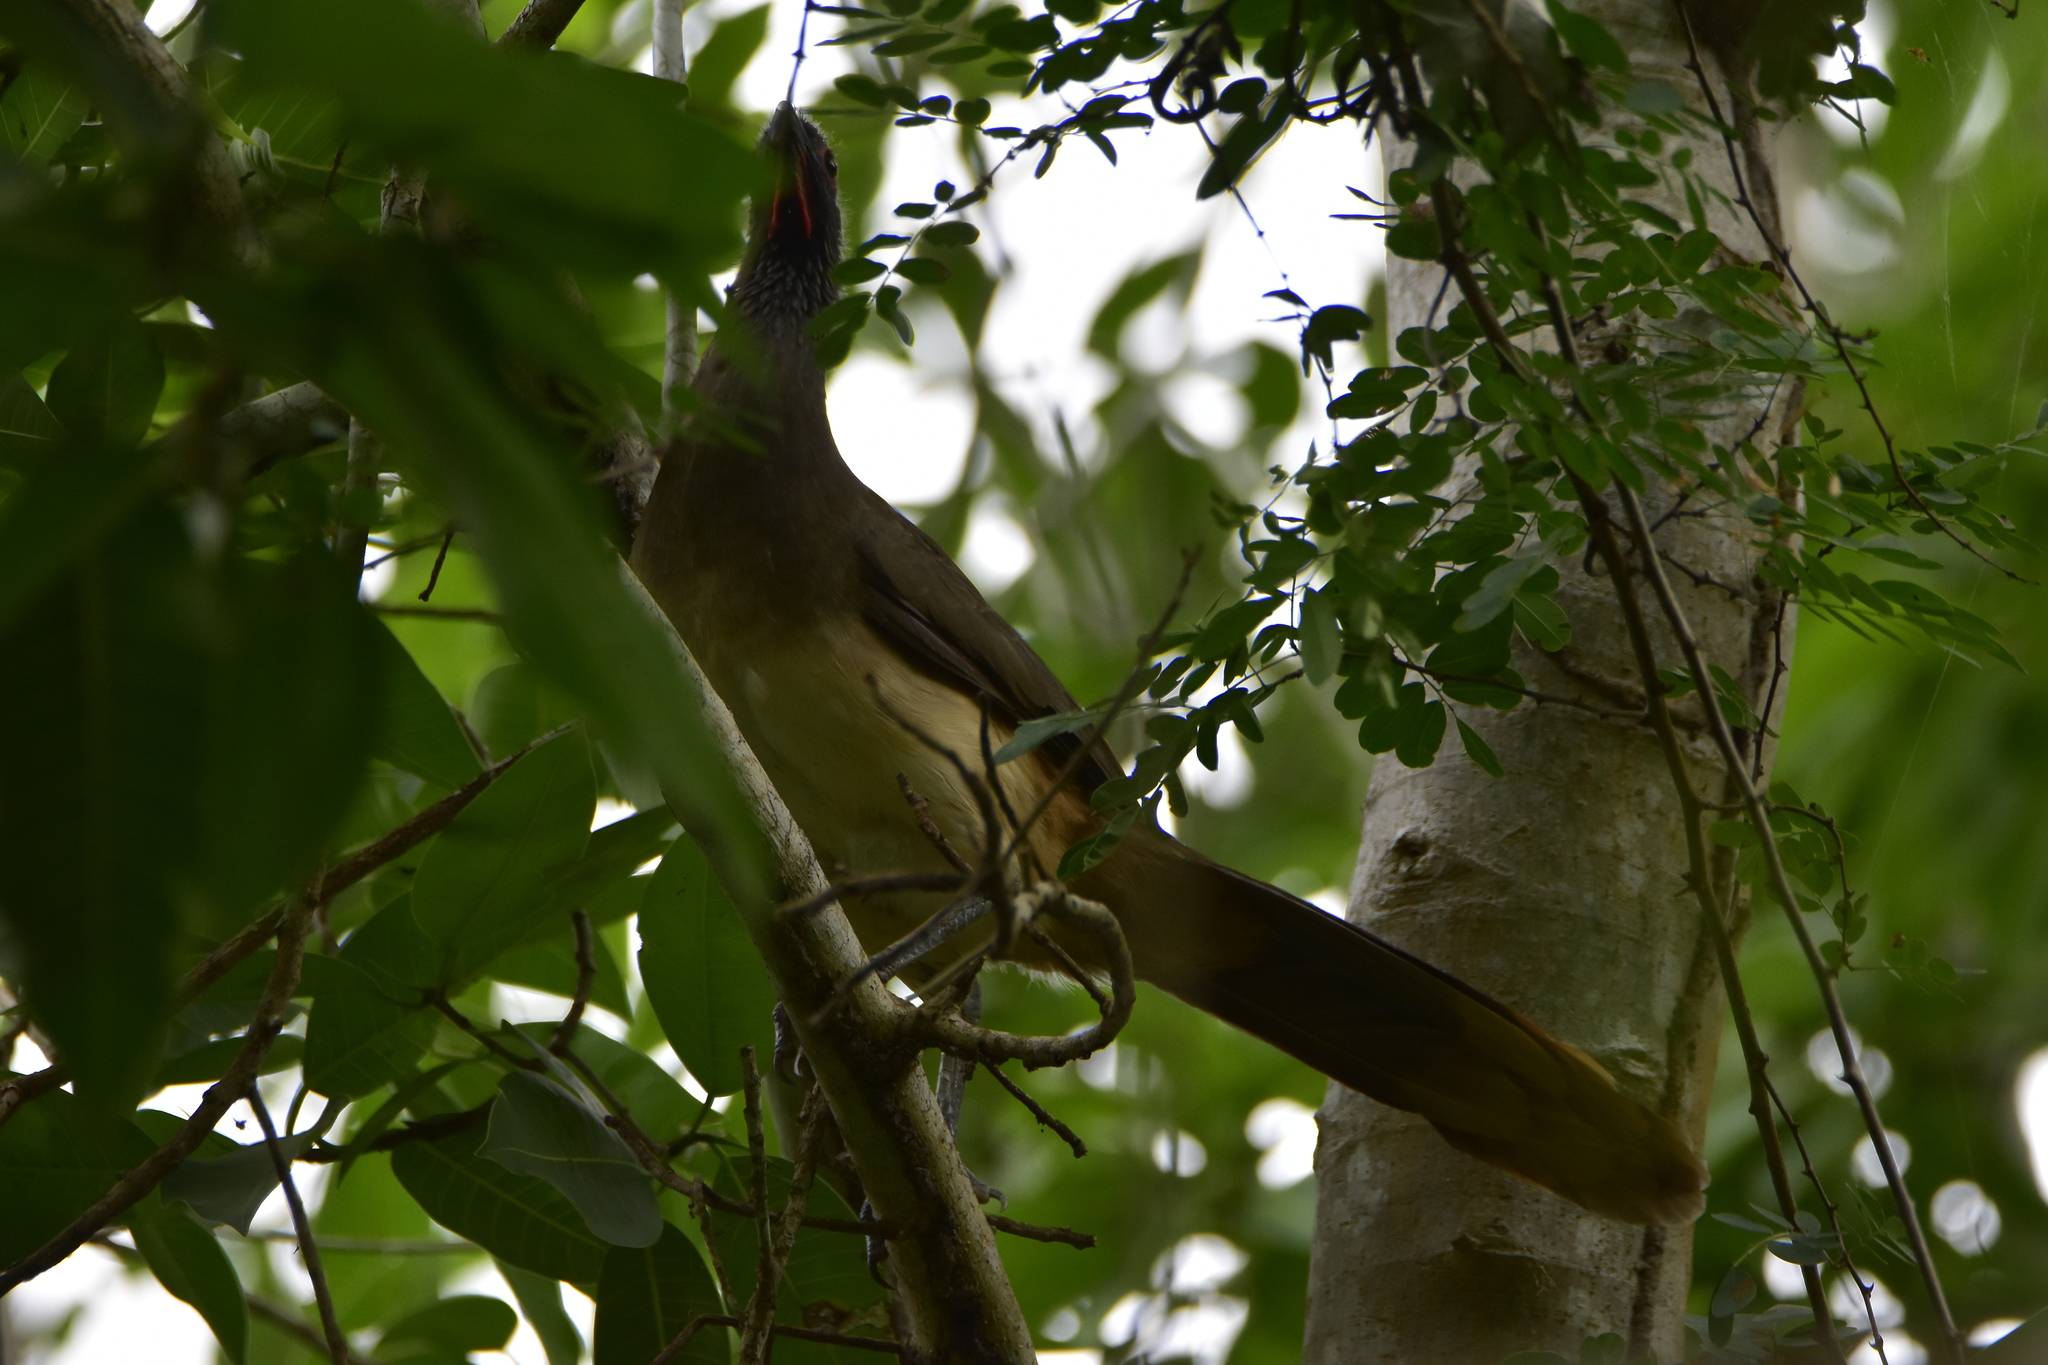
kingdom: Animalia
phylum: Chordata
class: Aves
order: Galliformes
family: Cracidae
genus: Ortalis
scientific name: Ortalis poliocephala
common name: West mexican chachalaca
